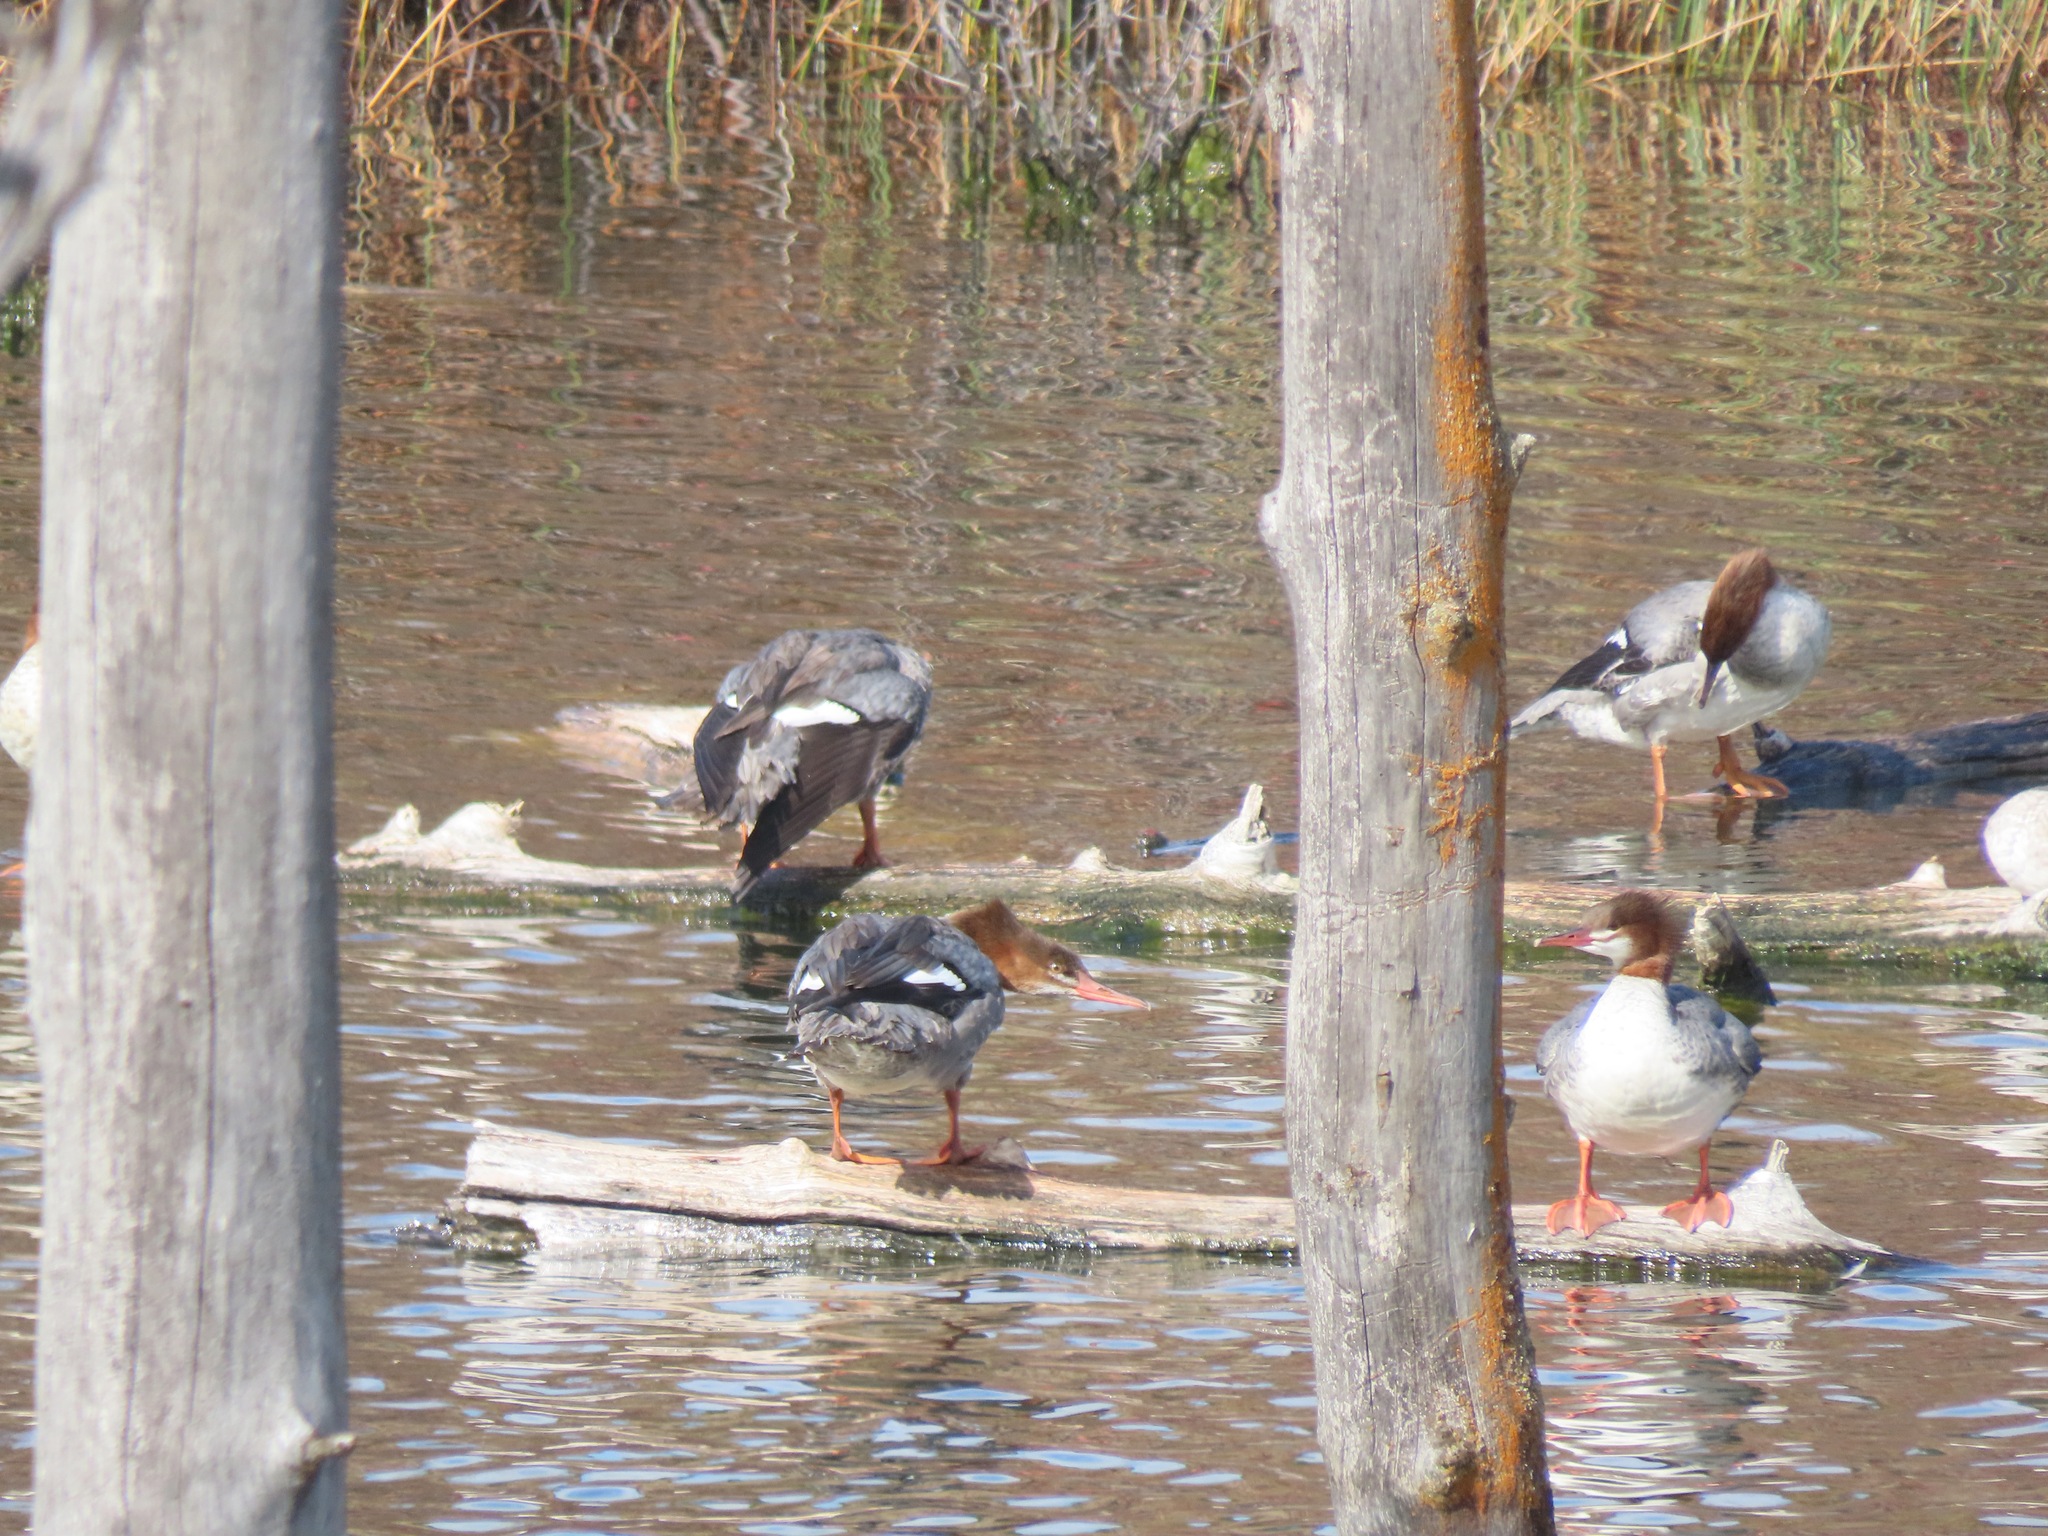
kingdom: Animalia
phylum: Chordata
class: Aves
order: Anseriformes
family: Anatidae
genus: Mergus
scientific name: Mergus merganser
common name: Common merganser
